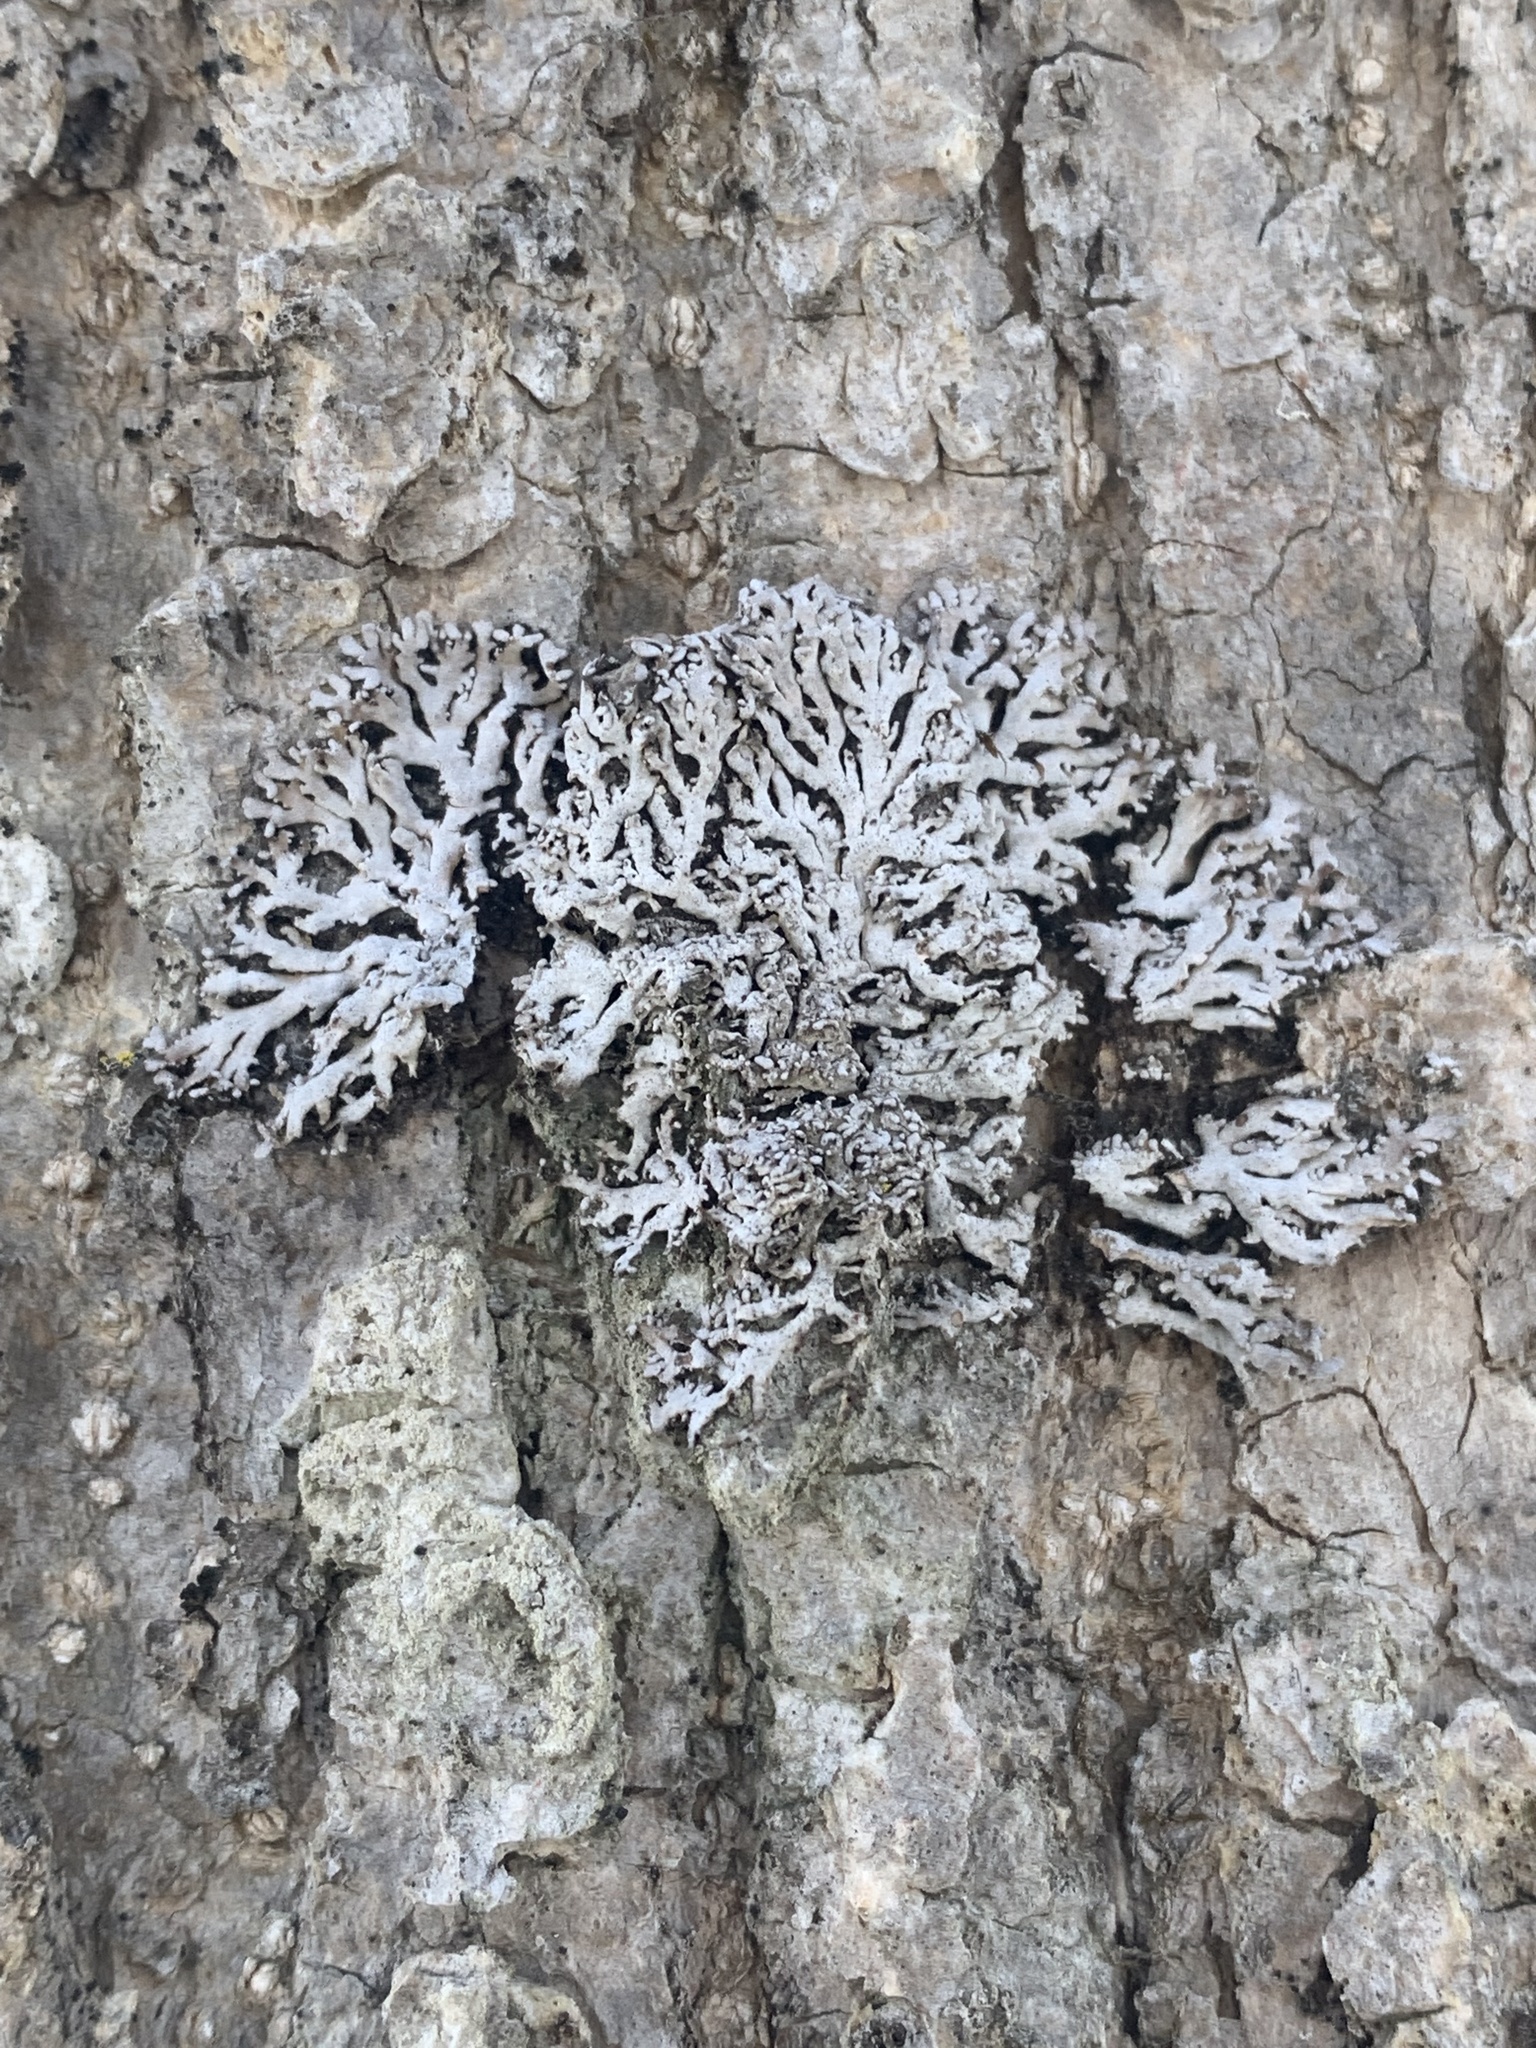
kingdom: Fungi
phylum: Ascomycota
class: Lecanoromycetes
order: Caliciales
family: Physciaceae
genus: Physconia
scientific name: Physconia subpallida
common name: Pale-belly frost lichen
